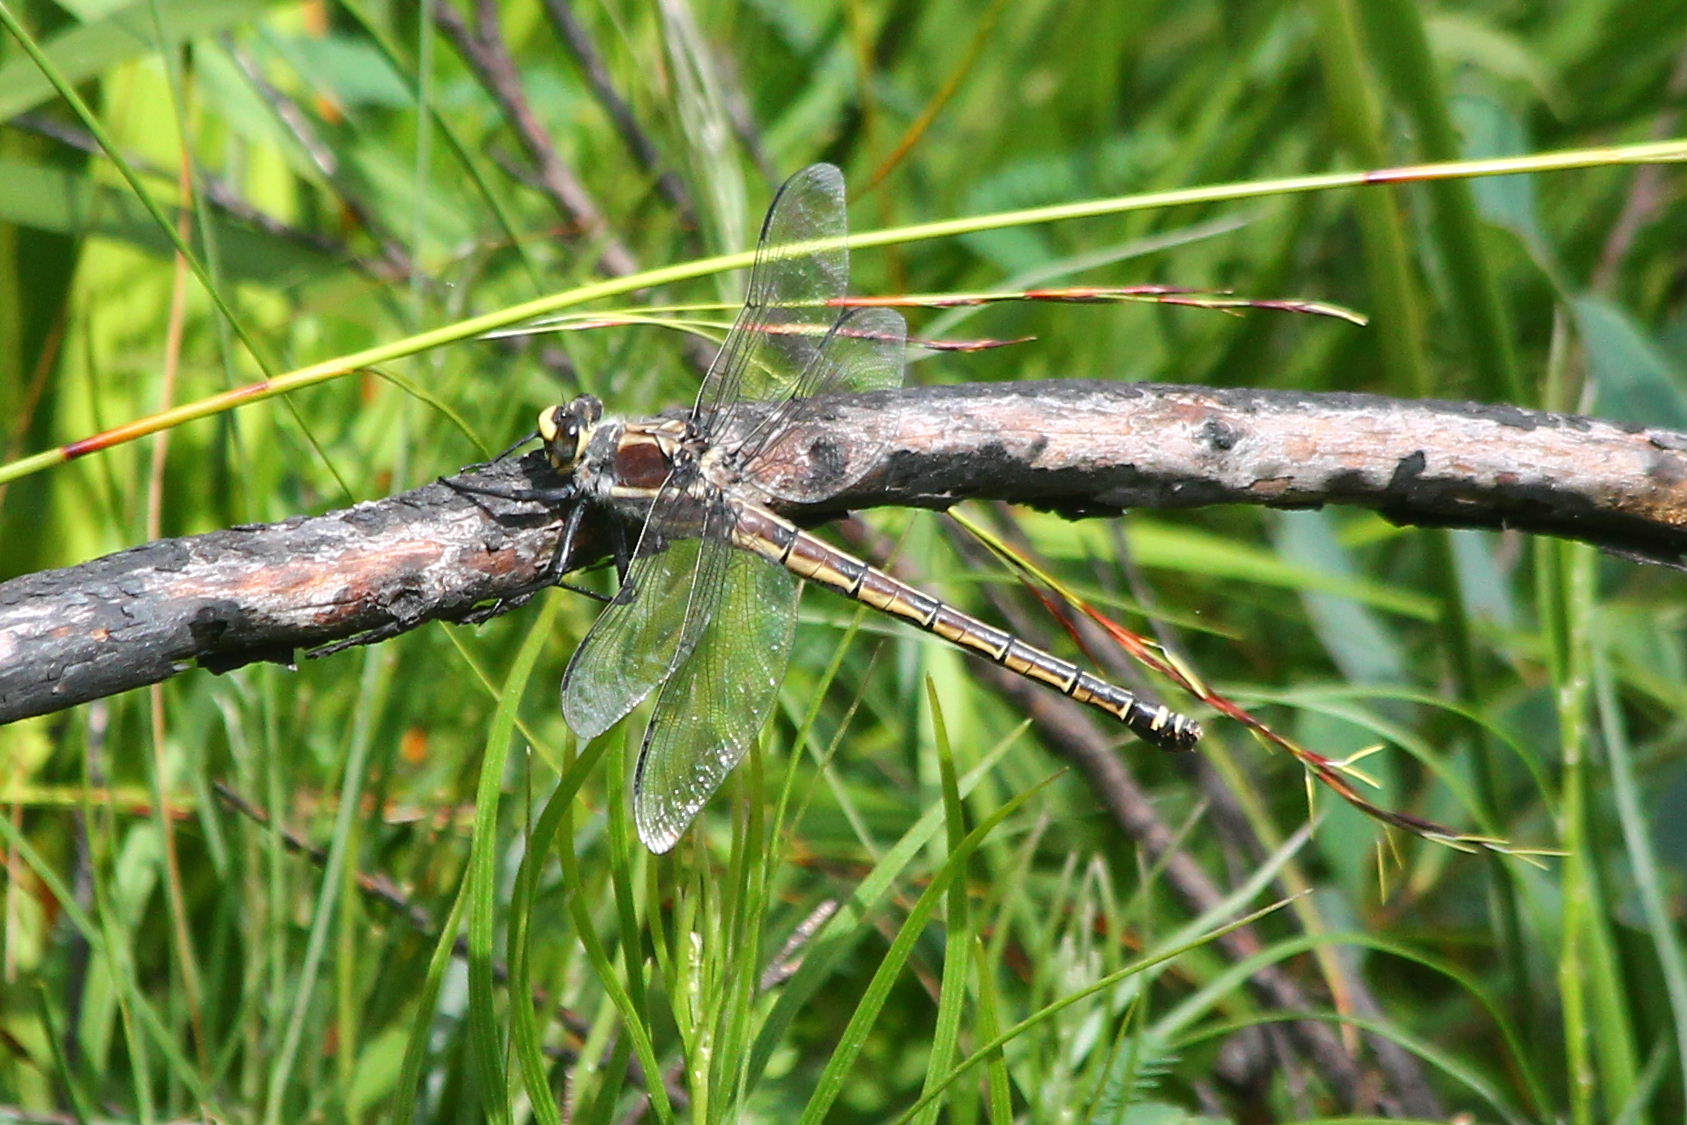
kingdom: Animalia
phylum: Arthropoda
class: Insecta
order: Odonata
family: Petaluridae
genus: Petalura
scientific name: Petalura gigantea
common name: South-eastern petaltail
